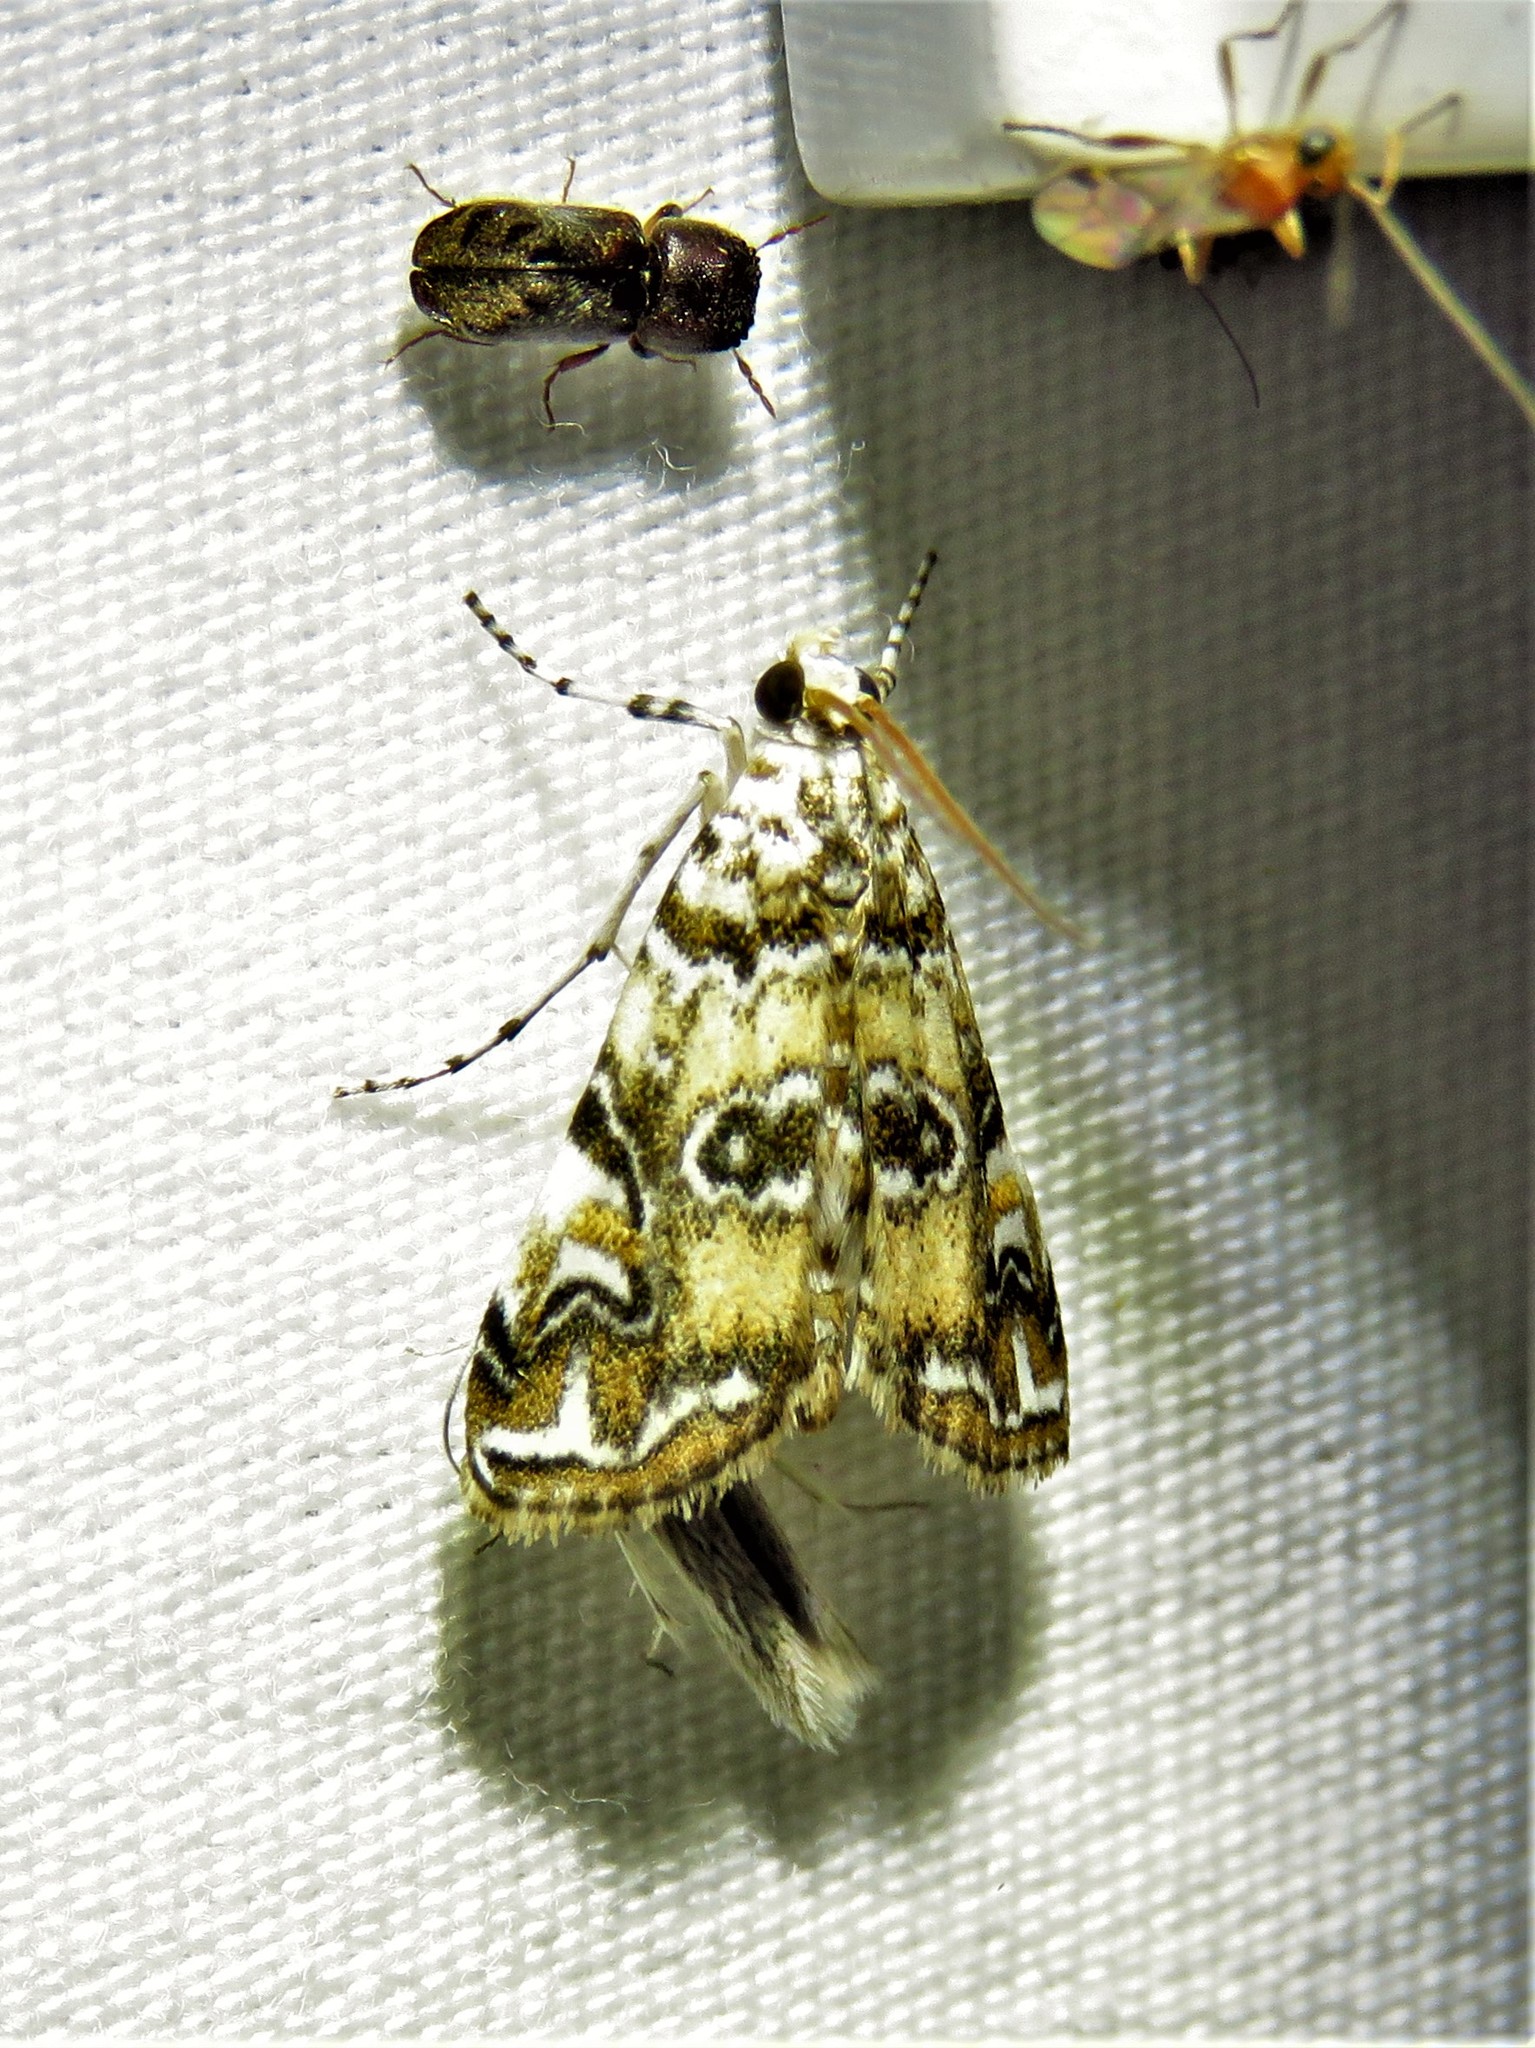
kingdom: Animalia
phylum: Arthropoda
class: Insecta
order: Lepidoptera
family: Crambidae
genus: Elophila
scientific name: Elophila gyralis
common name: Waterlily borer moth
